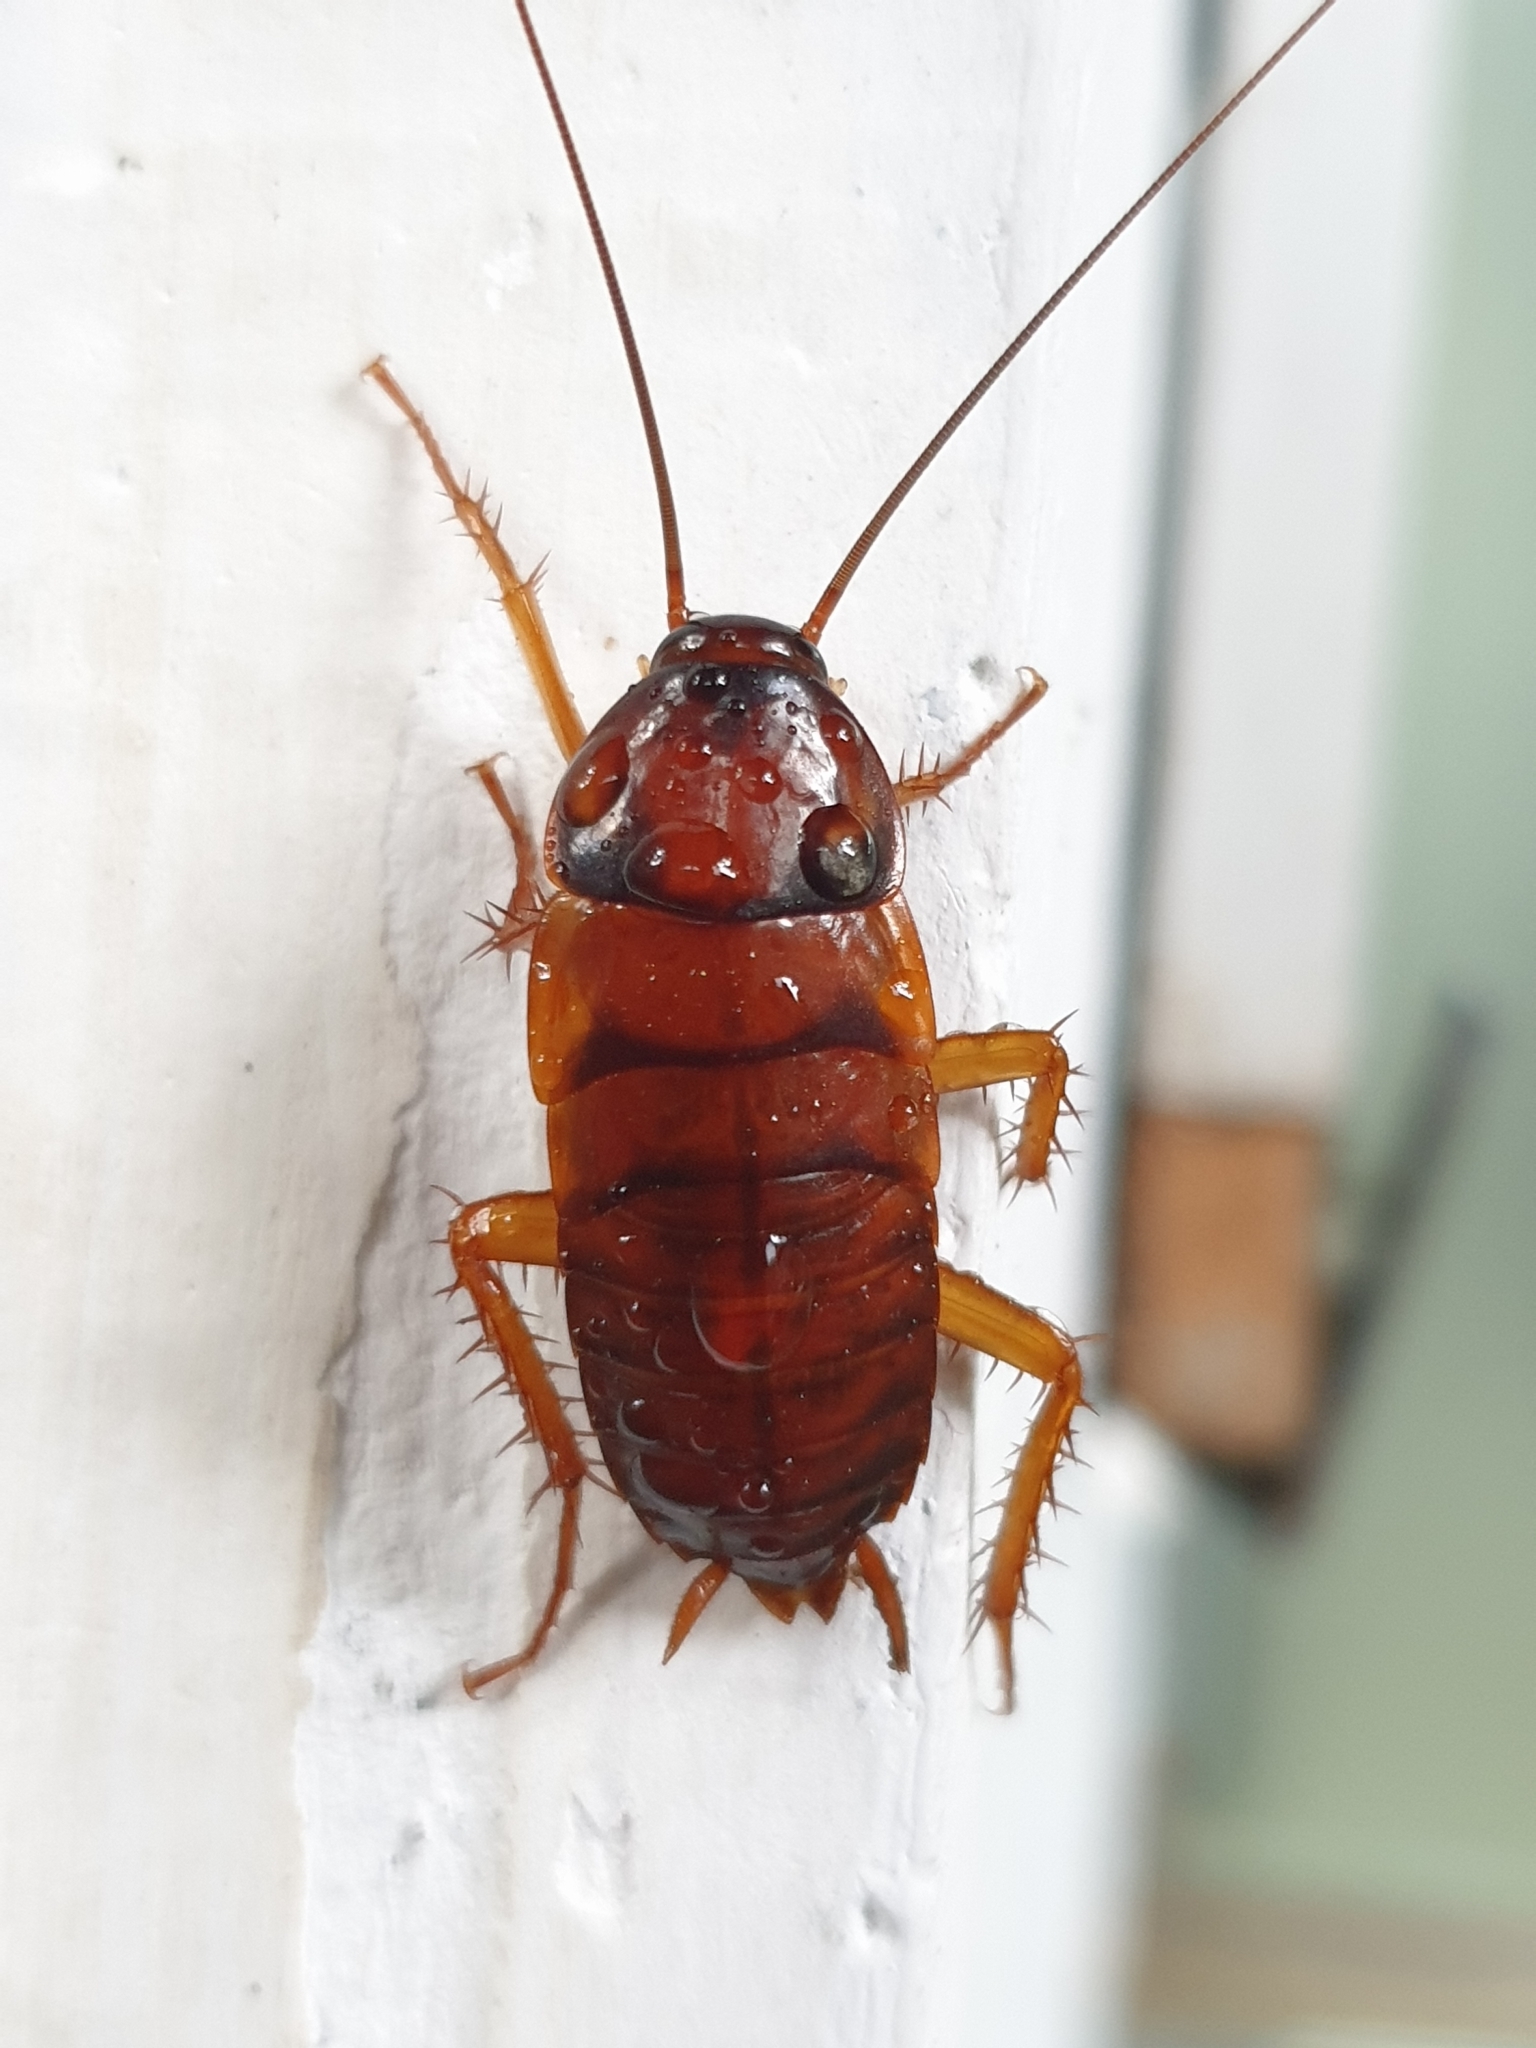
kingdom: Animalia
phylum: Arthropoda
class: Insecta
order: Blattodea
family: Blattidae
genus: Periplaneta
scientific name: Periplaneta americana
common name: American cockroach
